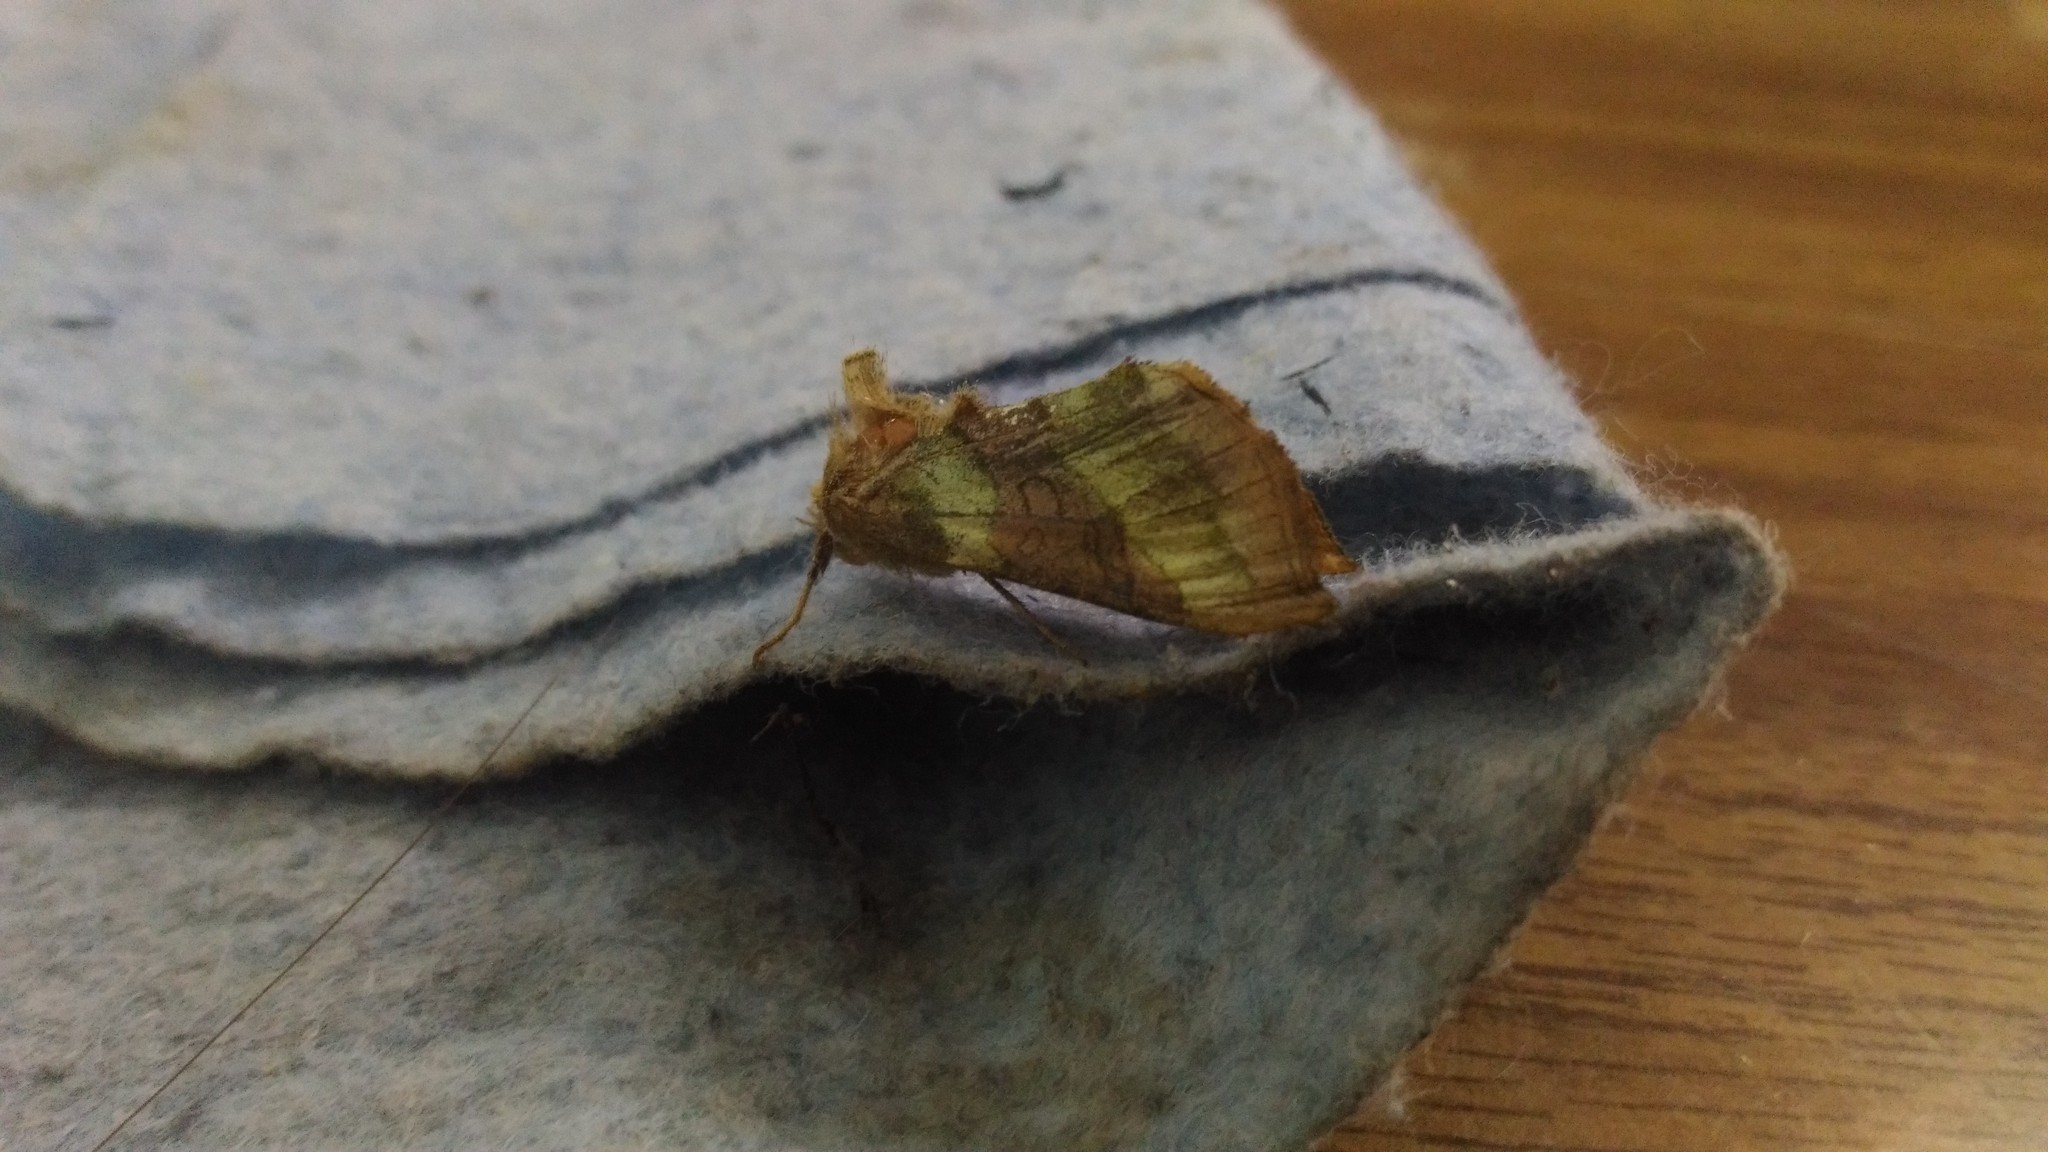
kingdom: Animalia
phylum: Arthropoda
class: Insecta
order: Lepidoptera
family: Noctuidae
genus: Diachrysia
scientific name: Diachrysia chrysitis
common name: Burnished brass
